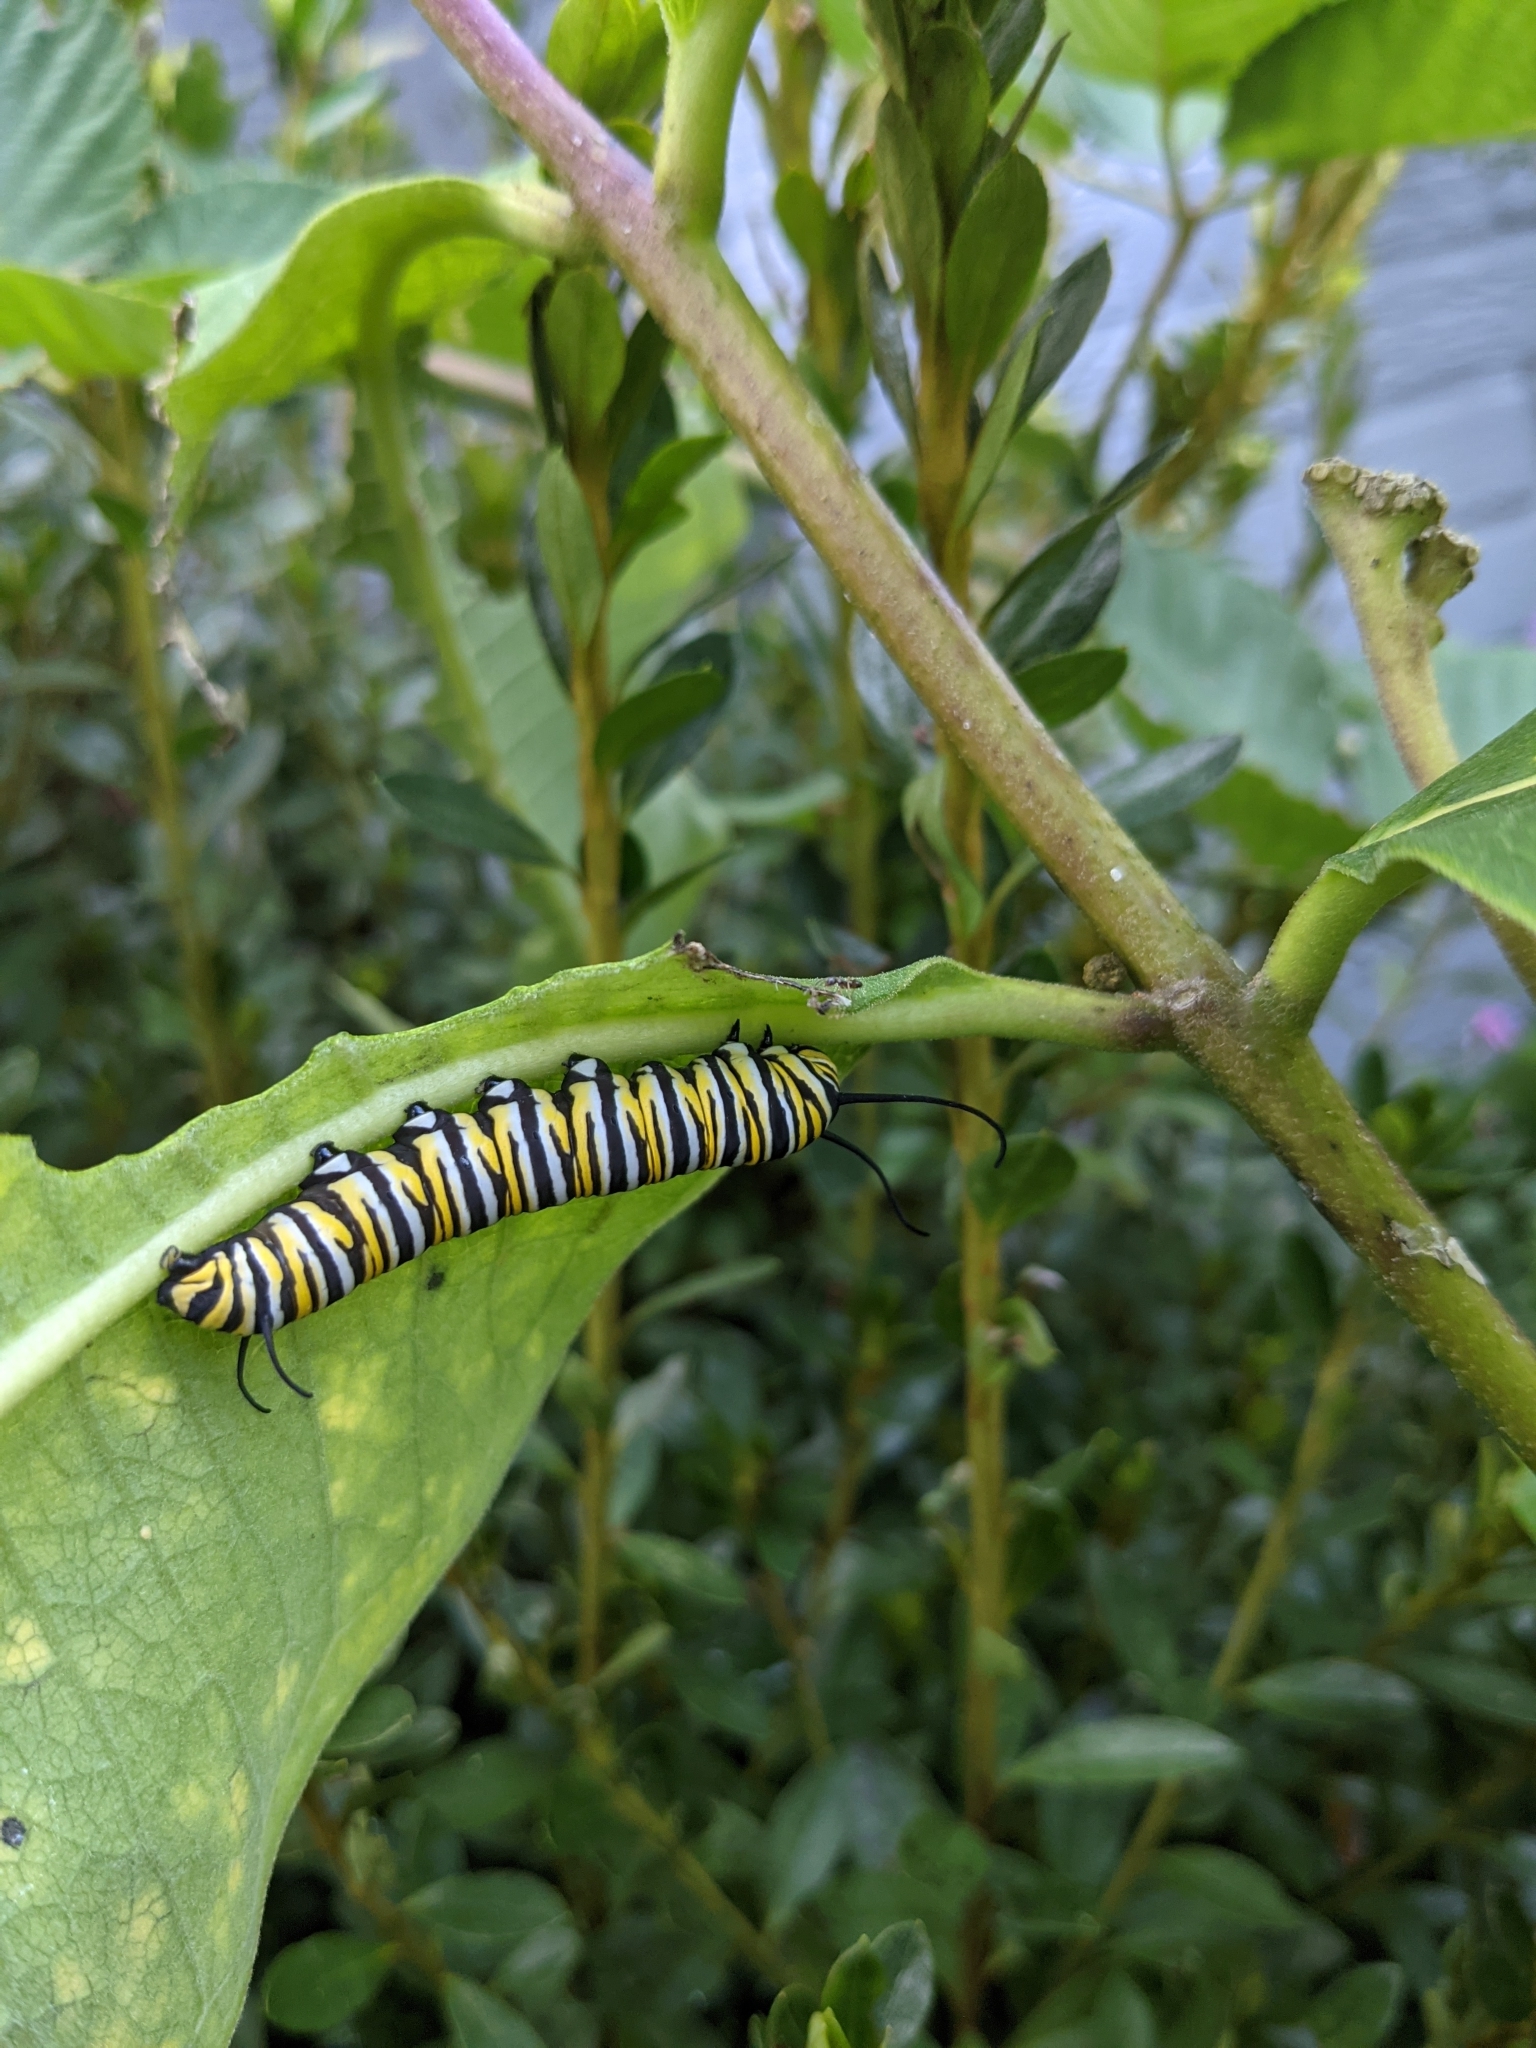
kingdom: Animalia
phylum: Arthropoda
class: Insecta
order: Lepidoptera
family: Nymphalidae
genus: Danaus
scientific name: Danaus plexippus
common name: Monarch
